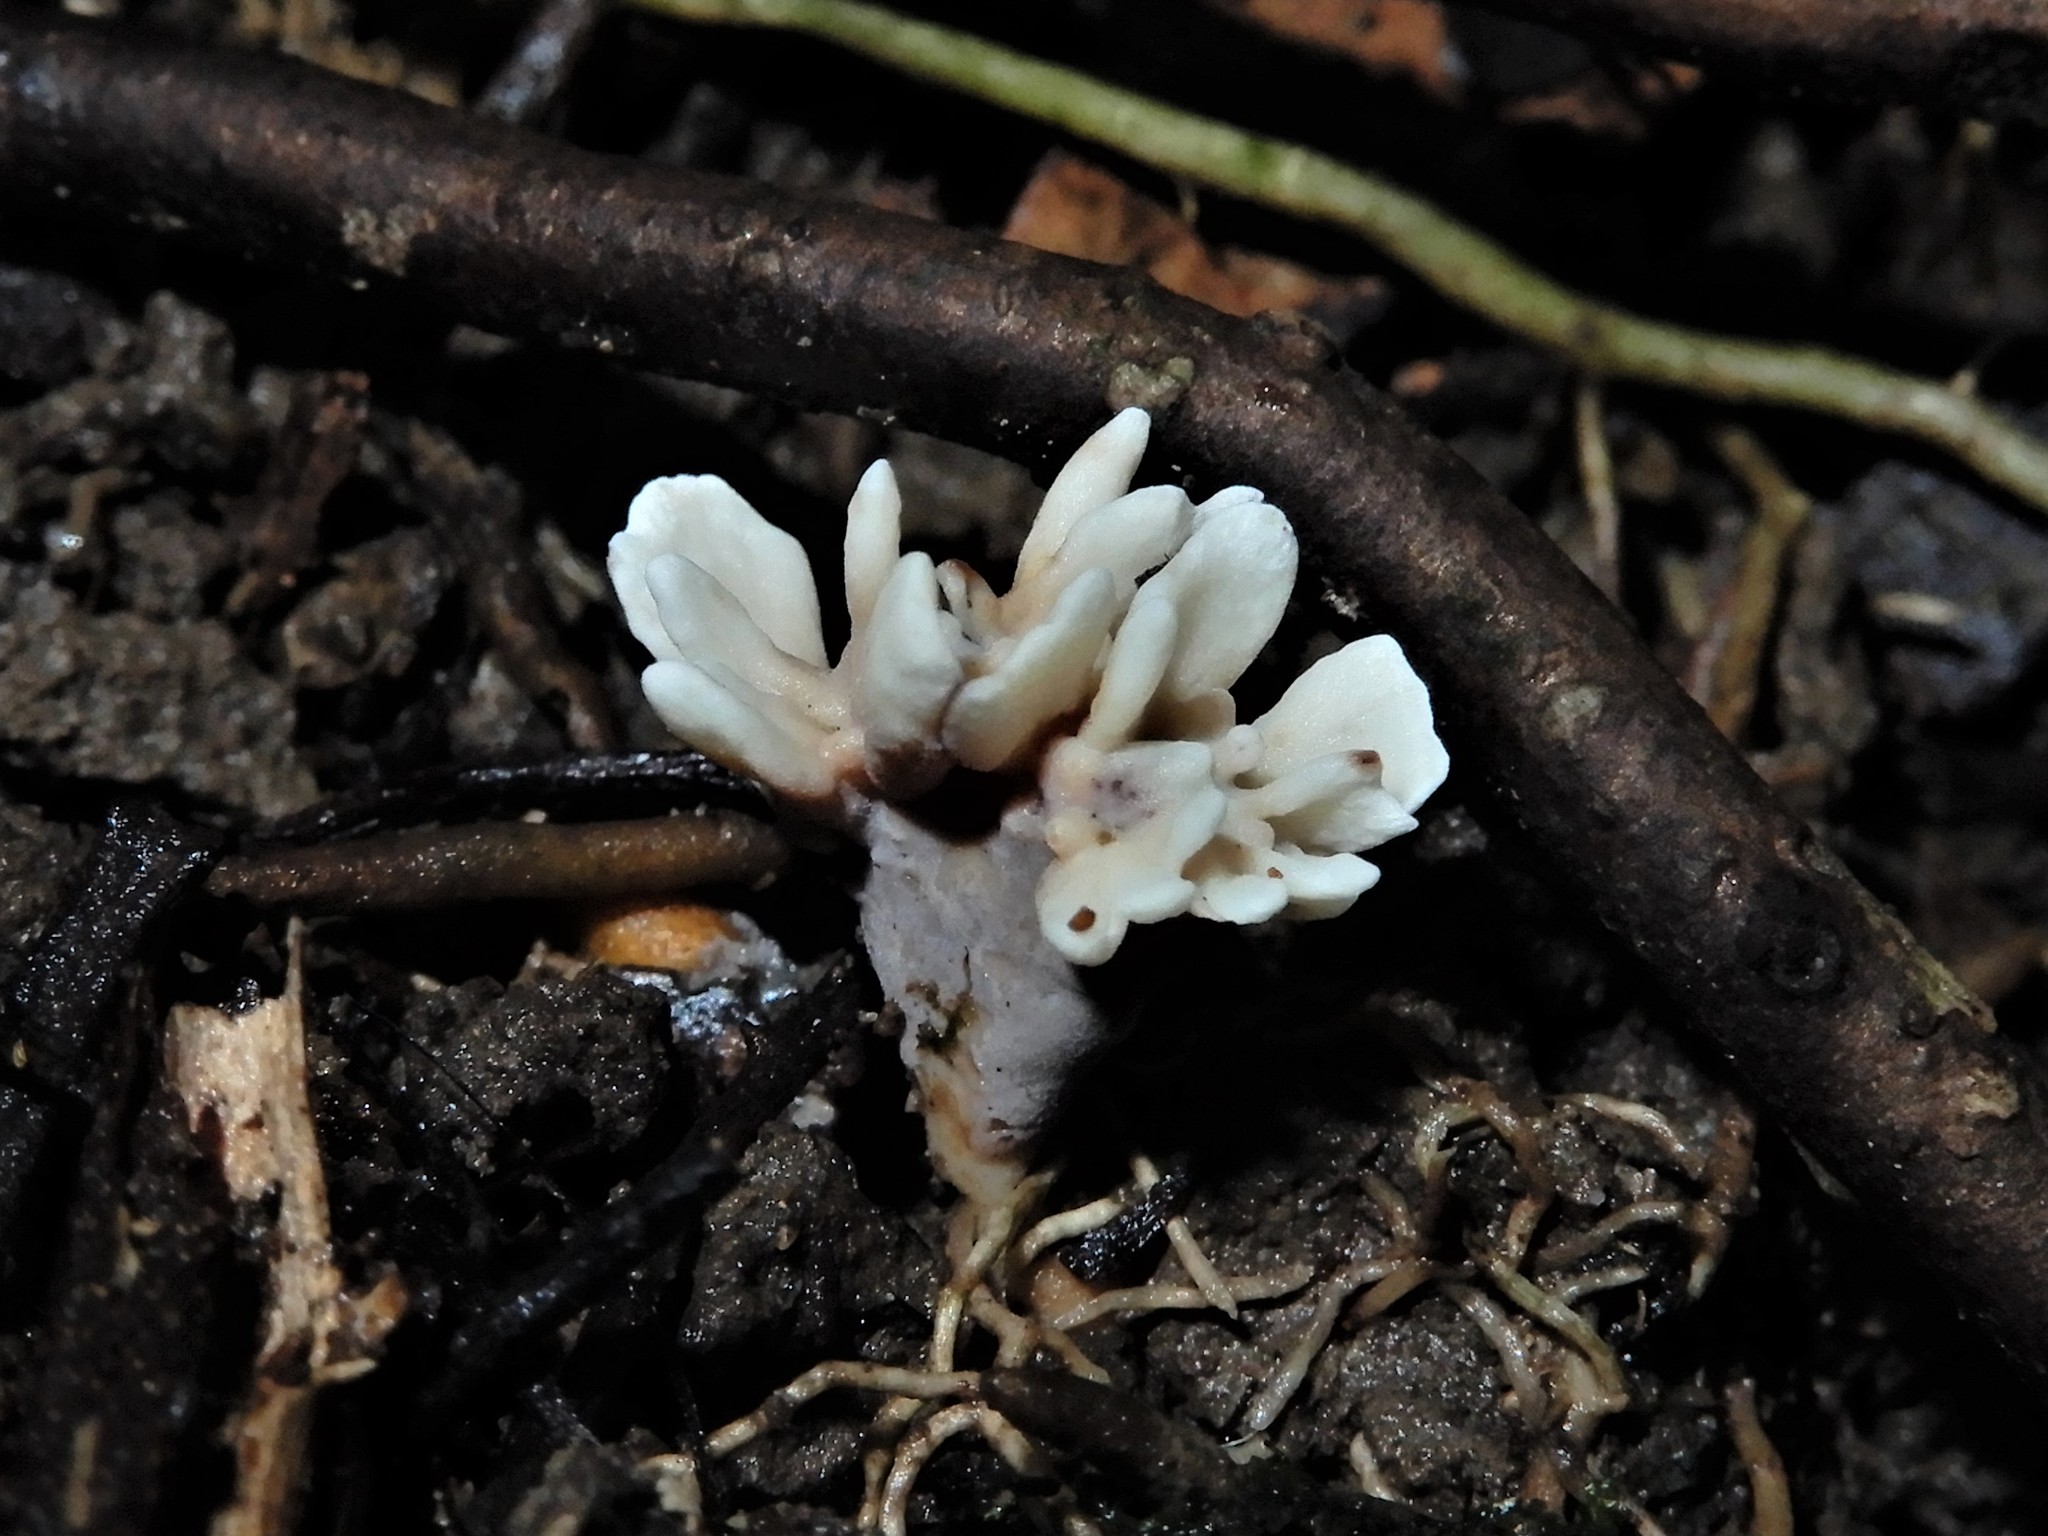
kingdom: Fungi
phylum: Basidiomycota
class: Agaricomycetes
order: Stereopsidales
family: Stereopsidaceae
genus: Stereopsis
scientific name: Stereopsis hiscens
